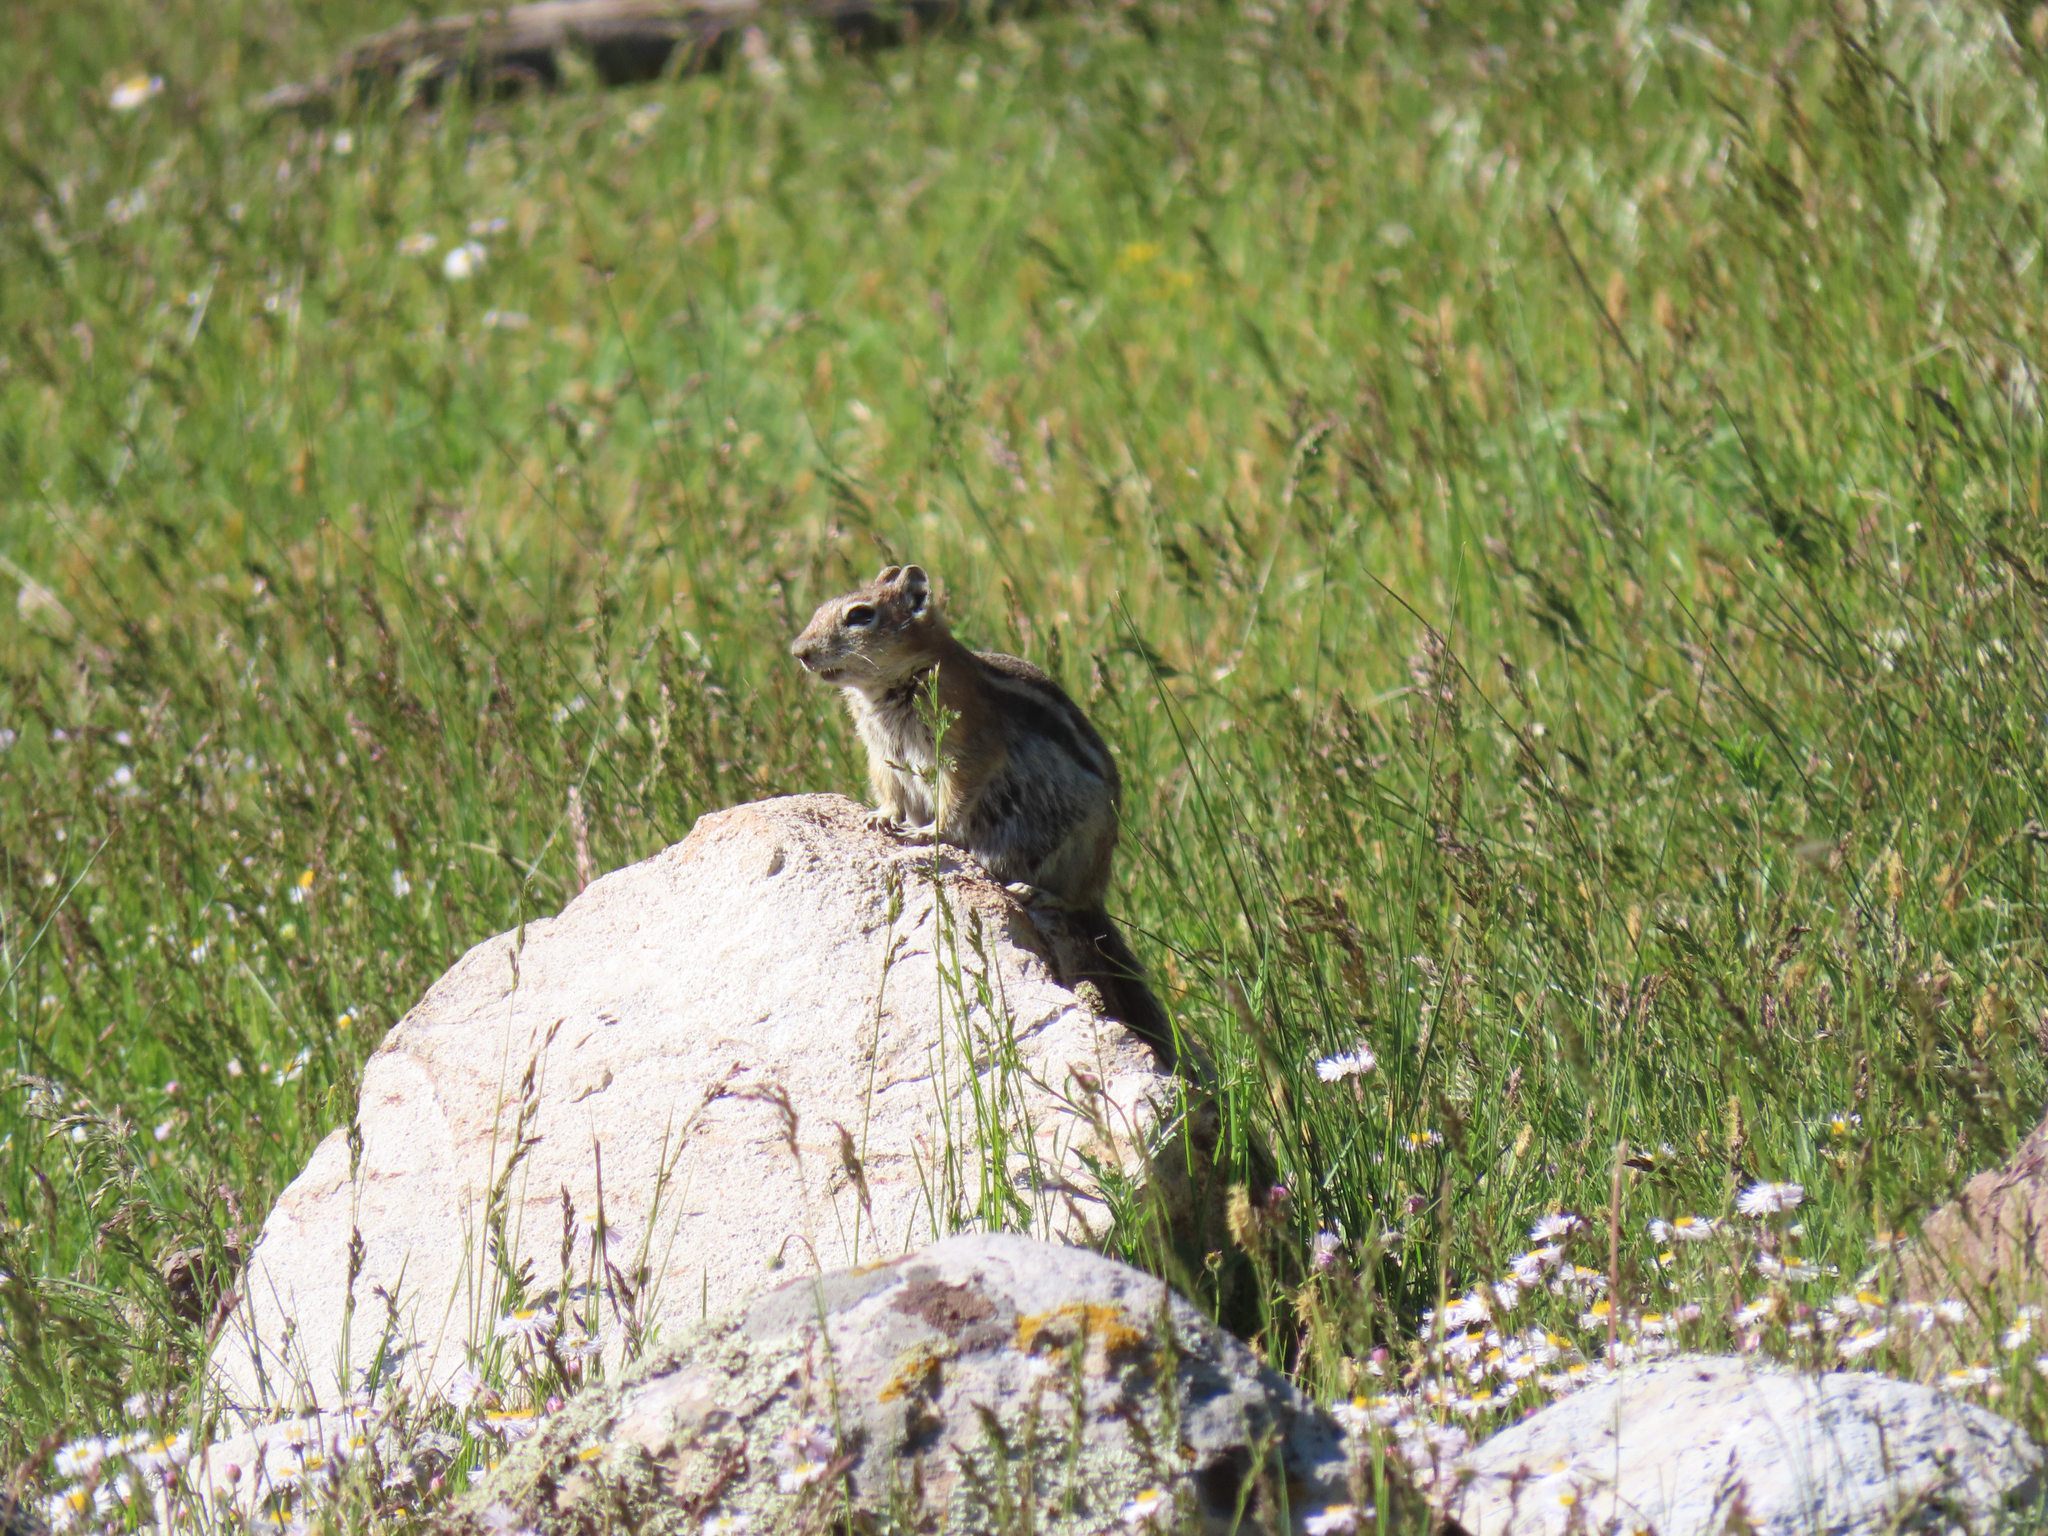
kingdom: Animalia
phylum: Chordata
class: Mammalia
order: Rodentia
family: Sciuridae
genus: Callospermophilus
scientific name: Callospermophilus lateralis
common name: Golden-mantled ground squirrel
